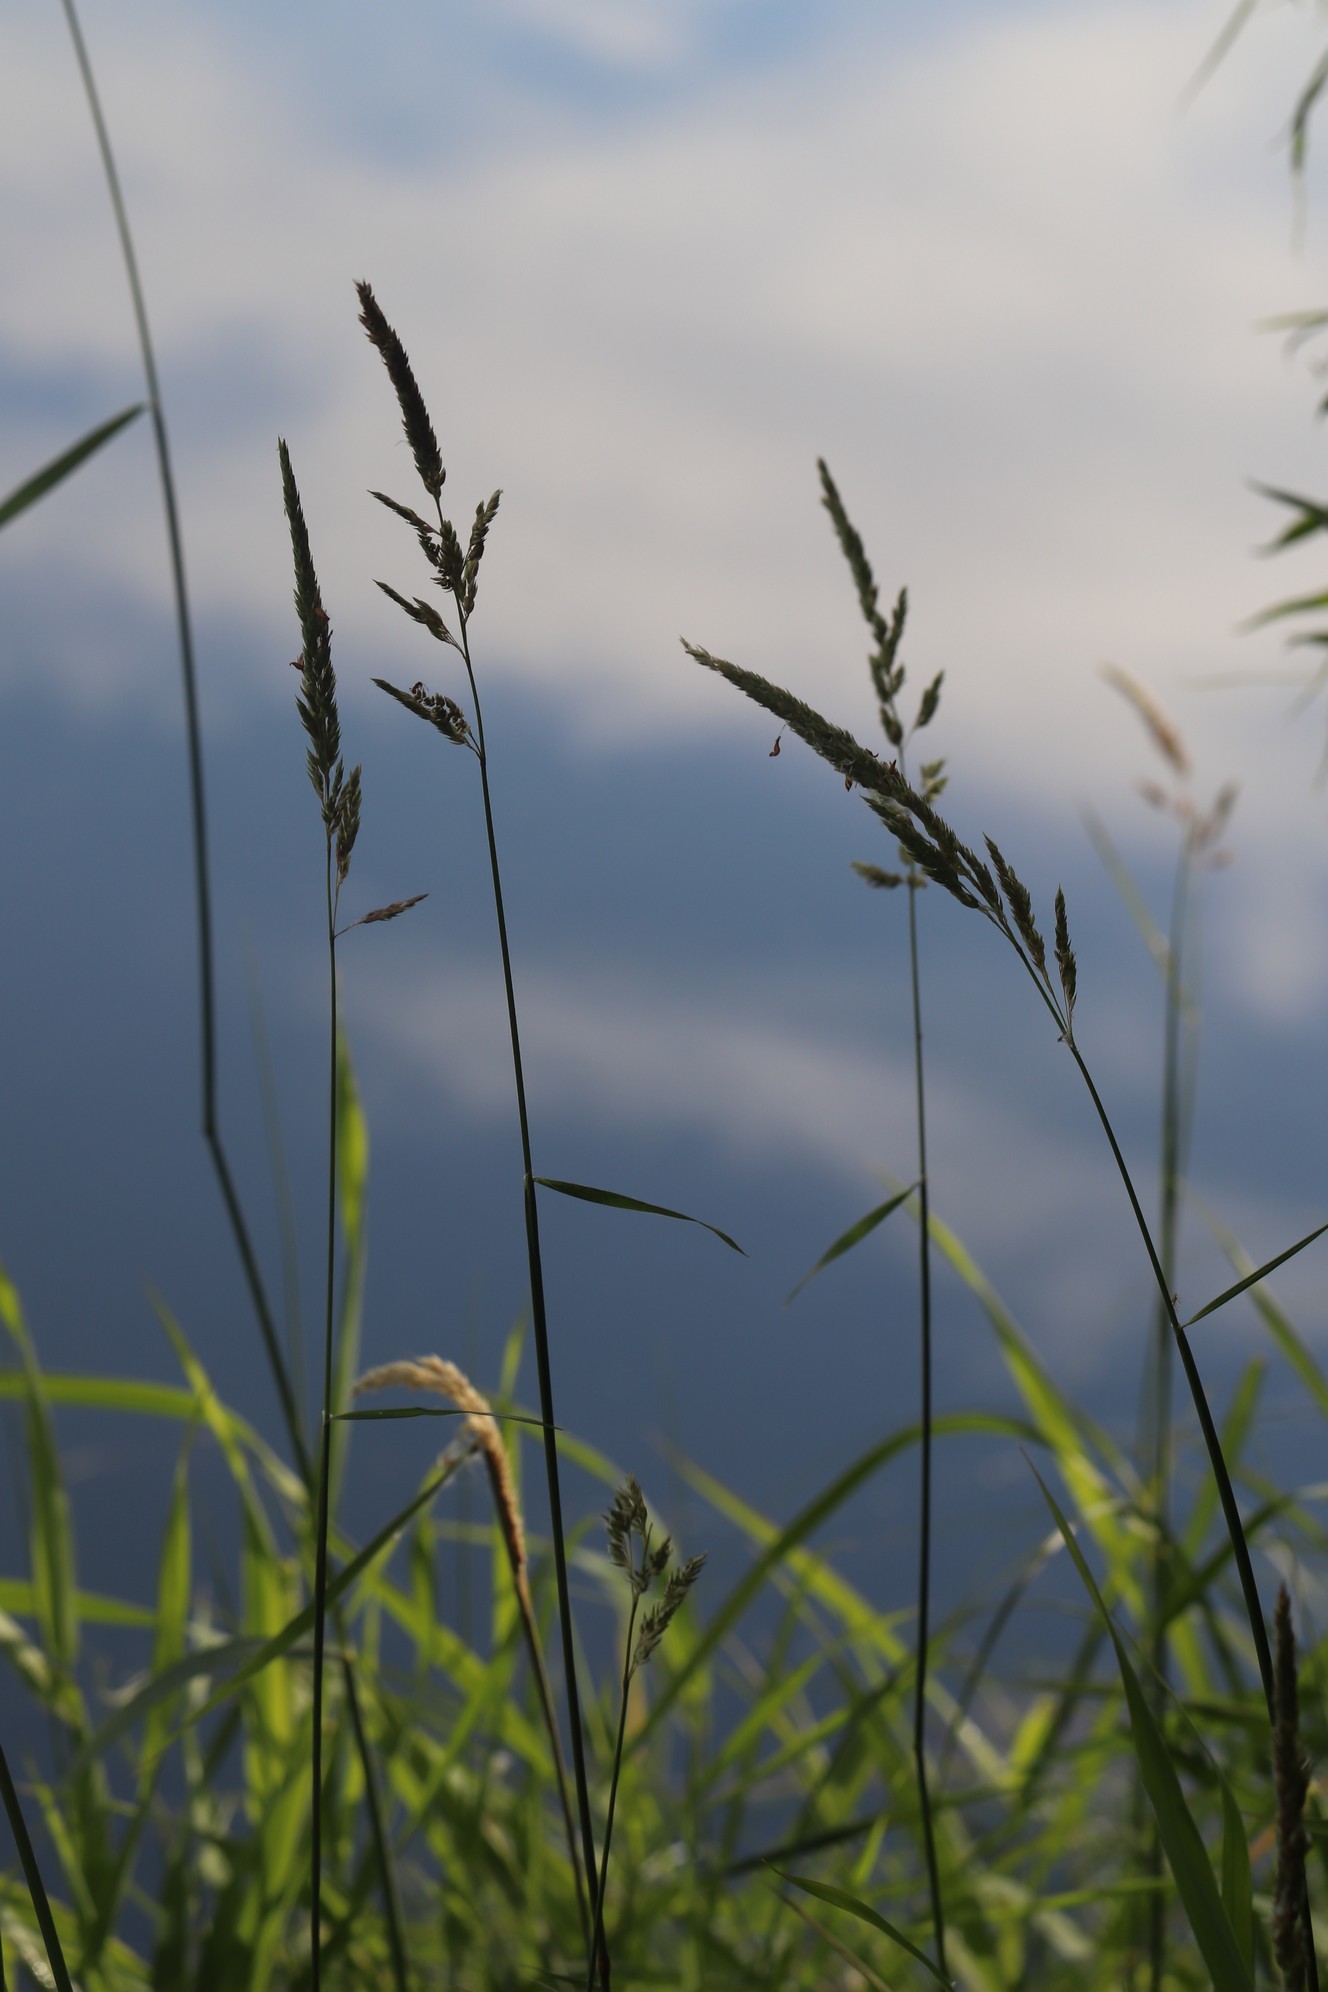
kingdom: Plantae
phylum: Tracheophyta
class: Liliopsida
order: Poales
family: Poaceae
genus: Phalaris
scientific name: Phalaris arundinacea
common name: Reed canary-grass
